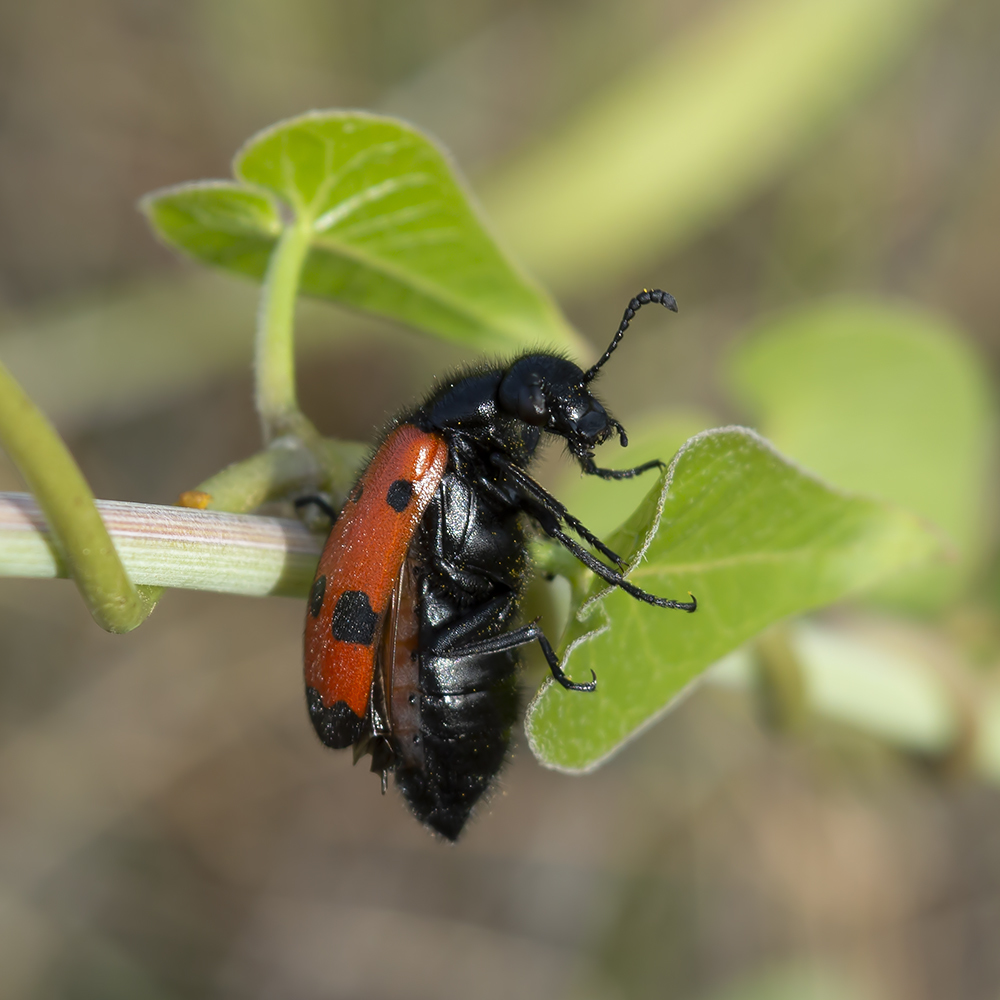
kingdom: Animalia
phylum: Arthropoda
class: Insecta
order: Coleoptera
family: Meloidae
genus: Mylabris
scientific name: Mylabris quadripunctata
